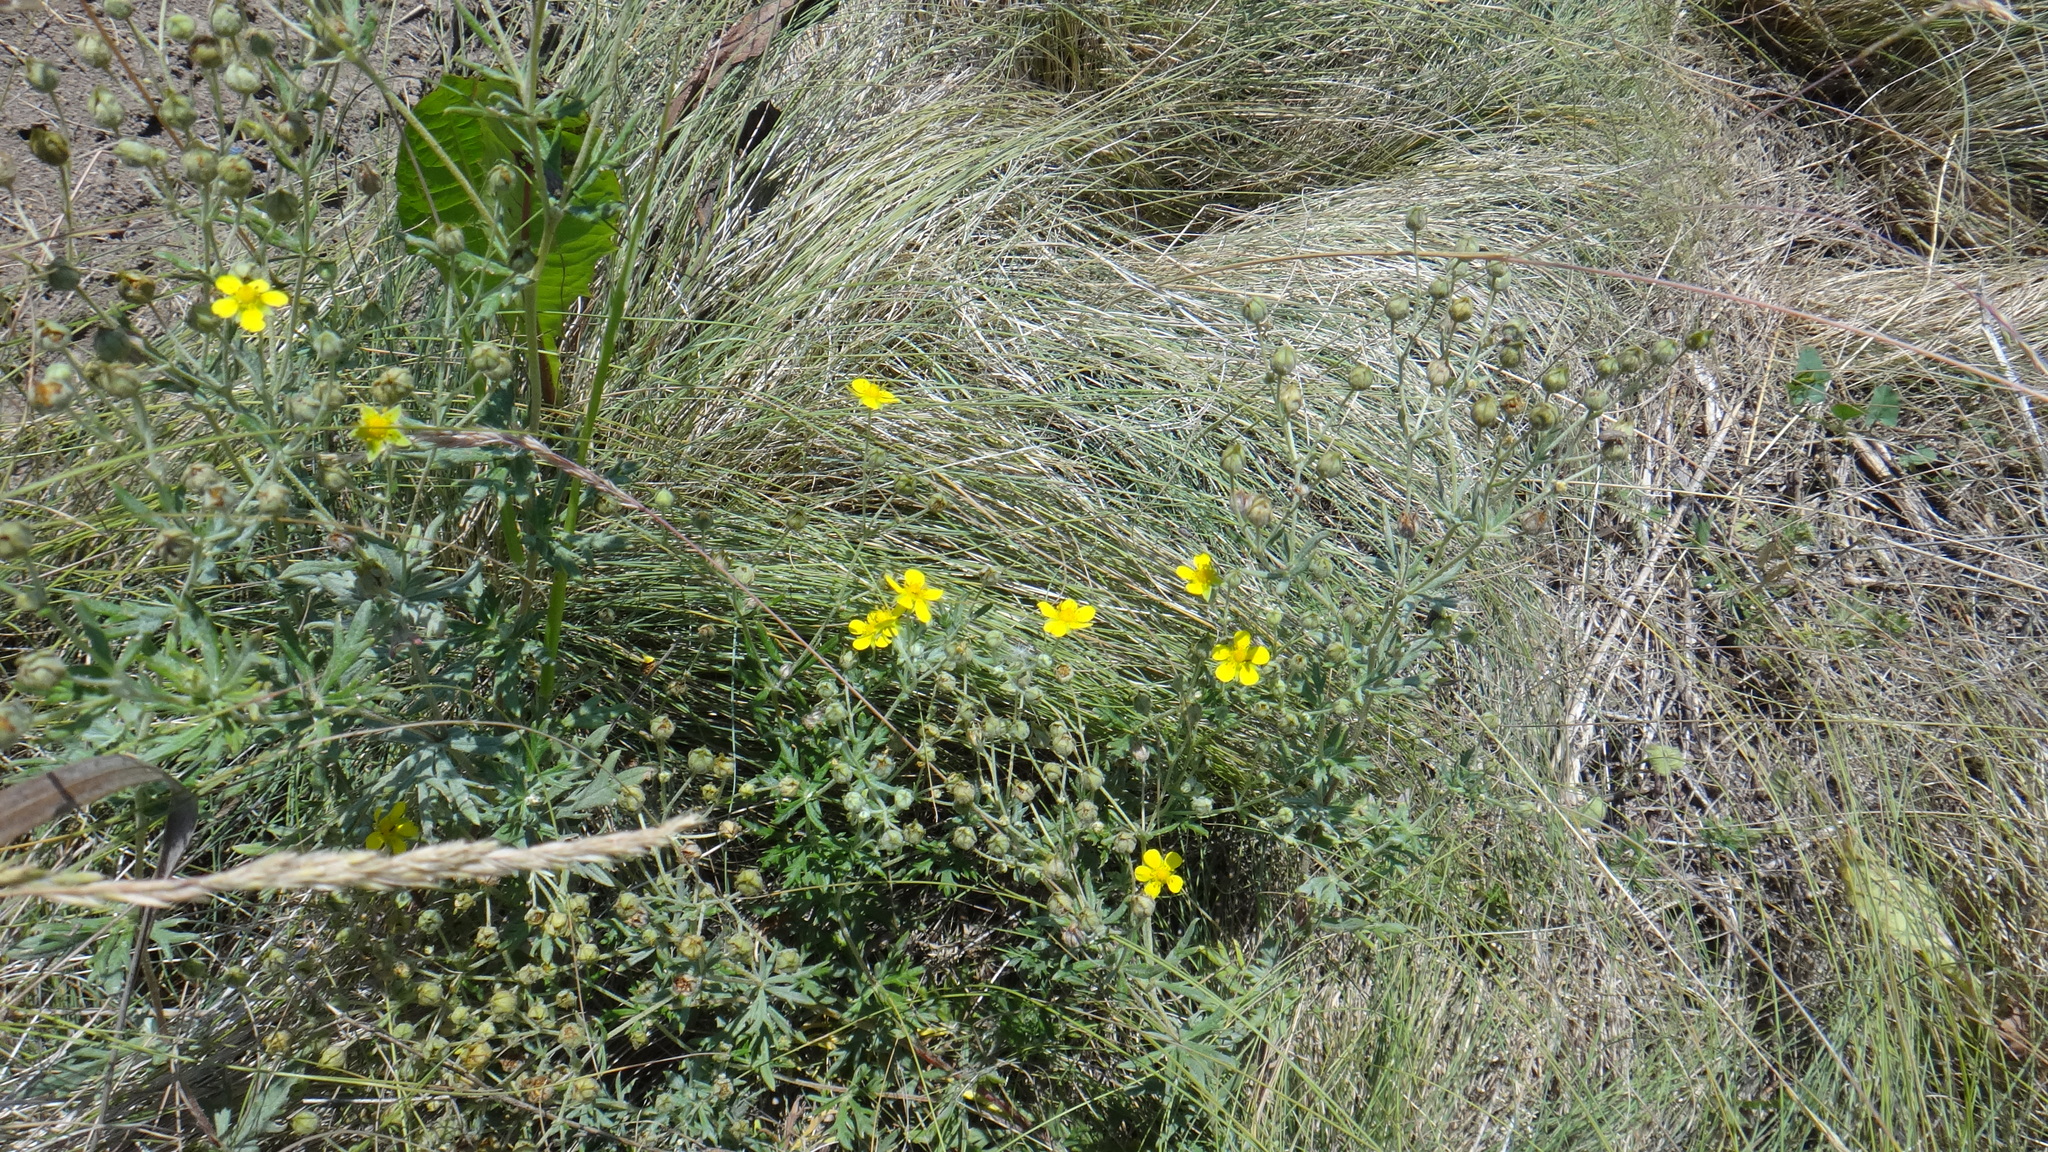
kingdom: Plantae
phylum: Tracheophyta
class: Magnoliopsida
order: Rosales
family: Rosaceae
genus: Potentilla
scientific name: Potentilla argentea
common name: Hoary cinquefoil
